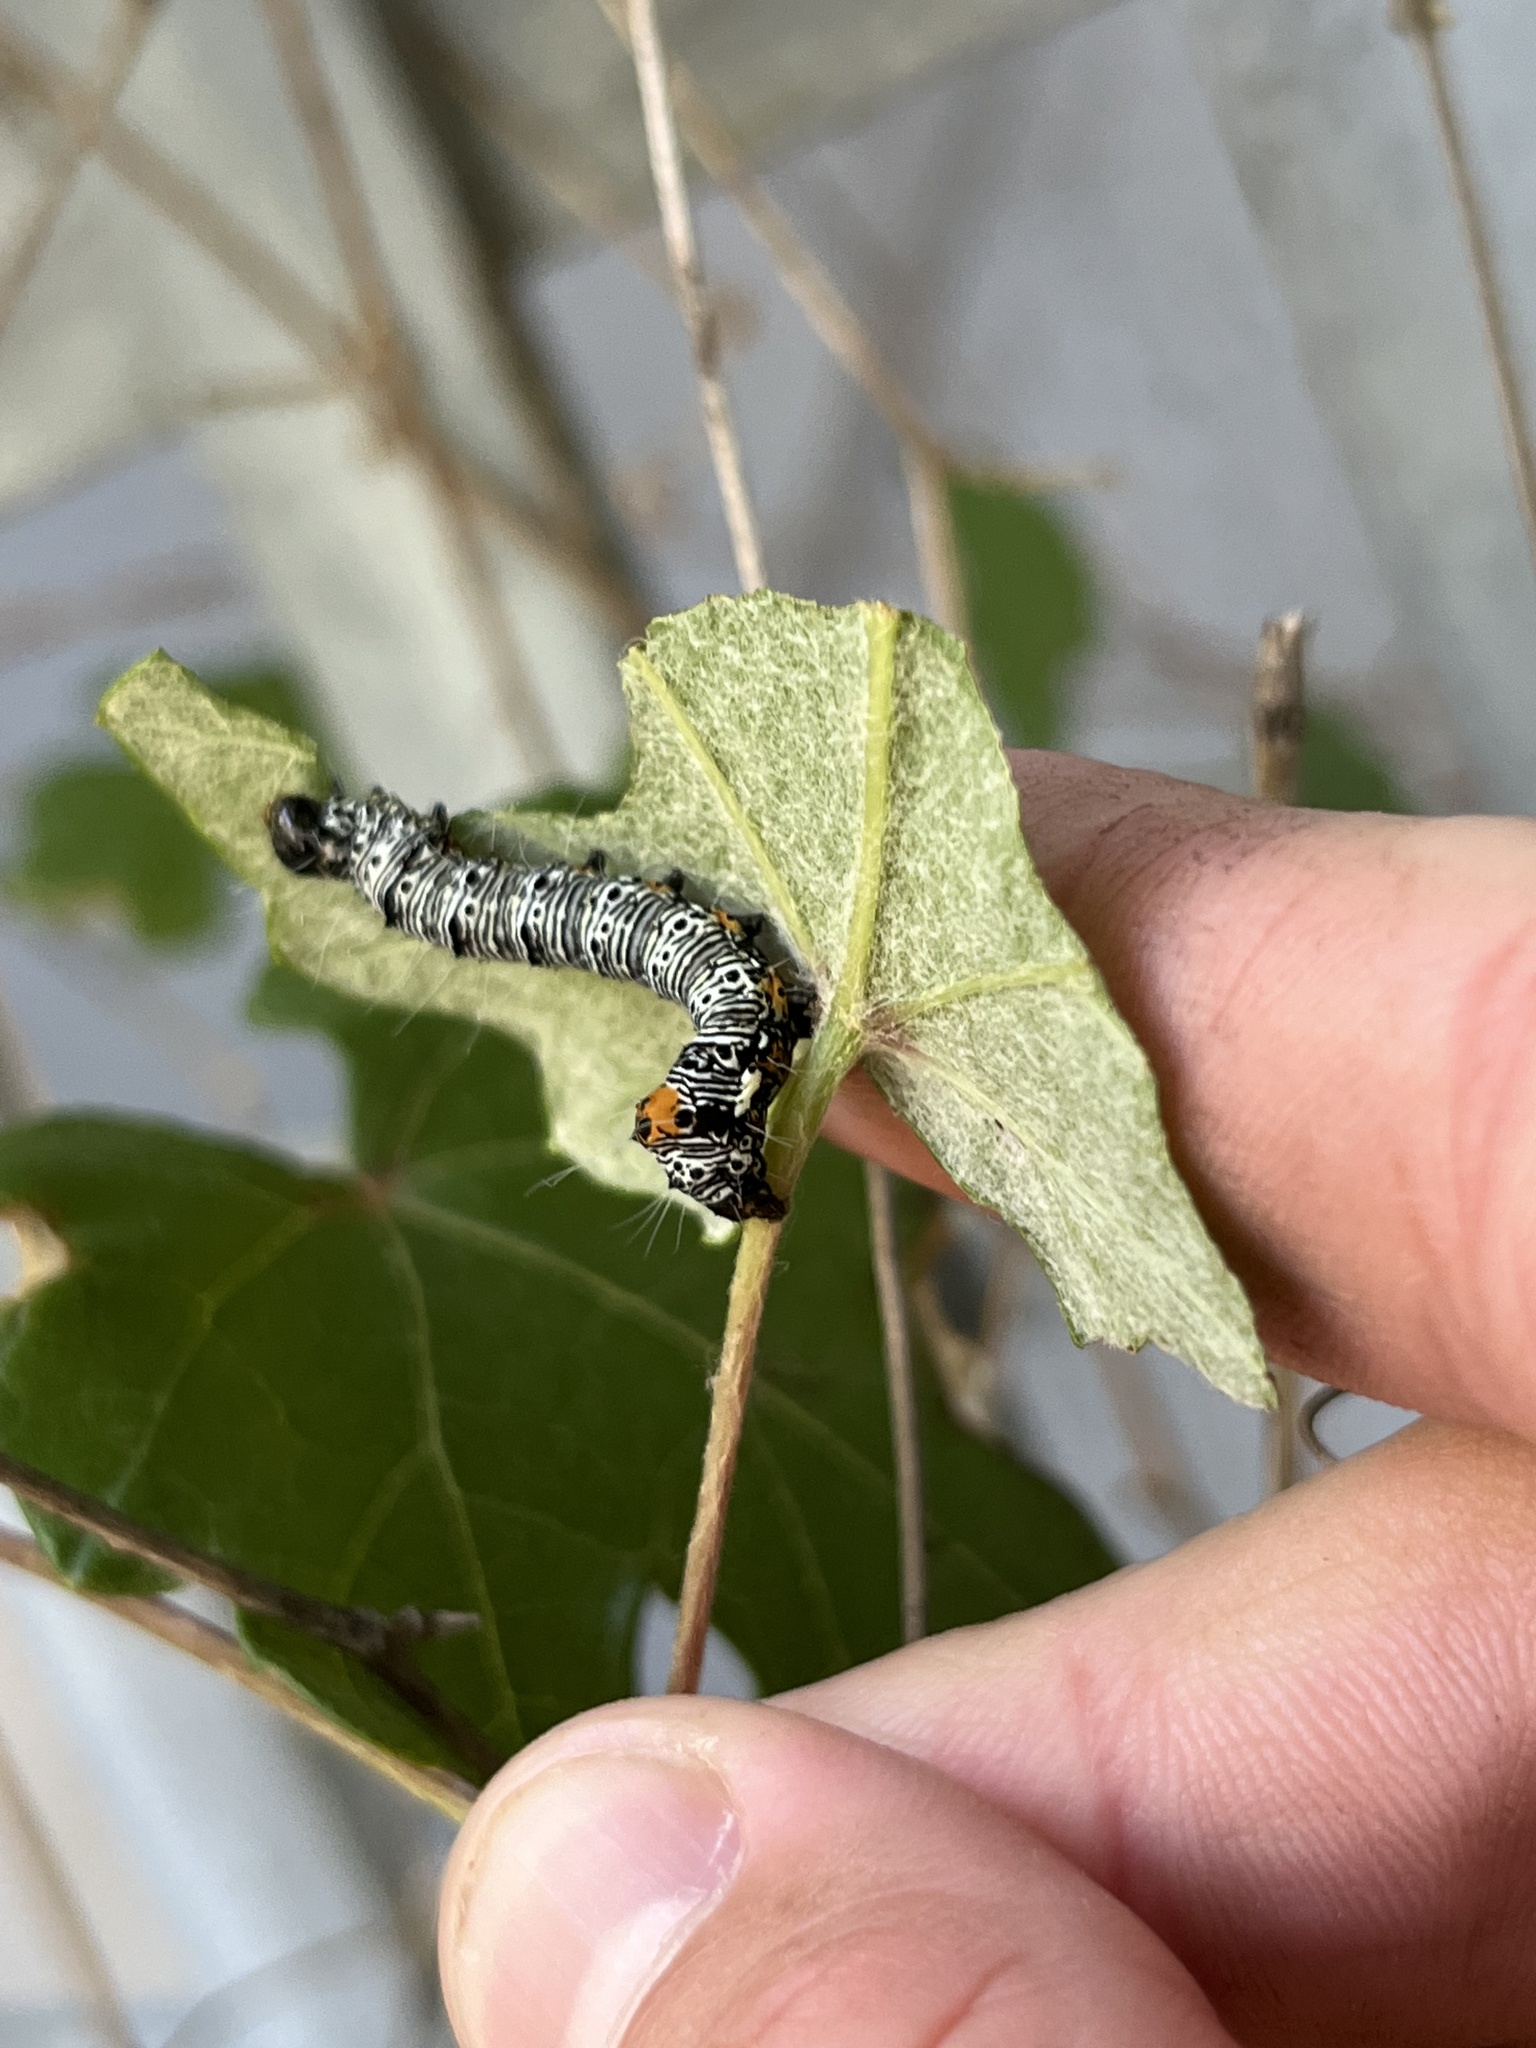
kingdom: Animalia
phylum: Arthropoda
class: Insecta
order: Lepidoptera
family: Noctuidae
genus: Alypia
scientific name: Alypia disparata
